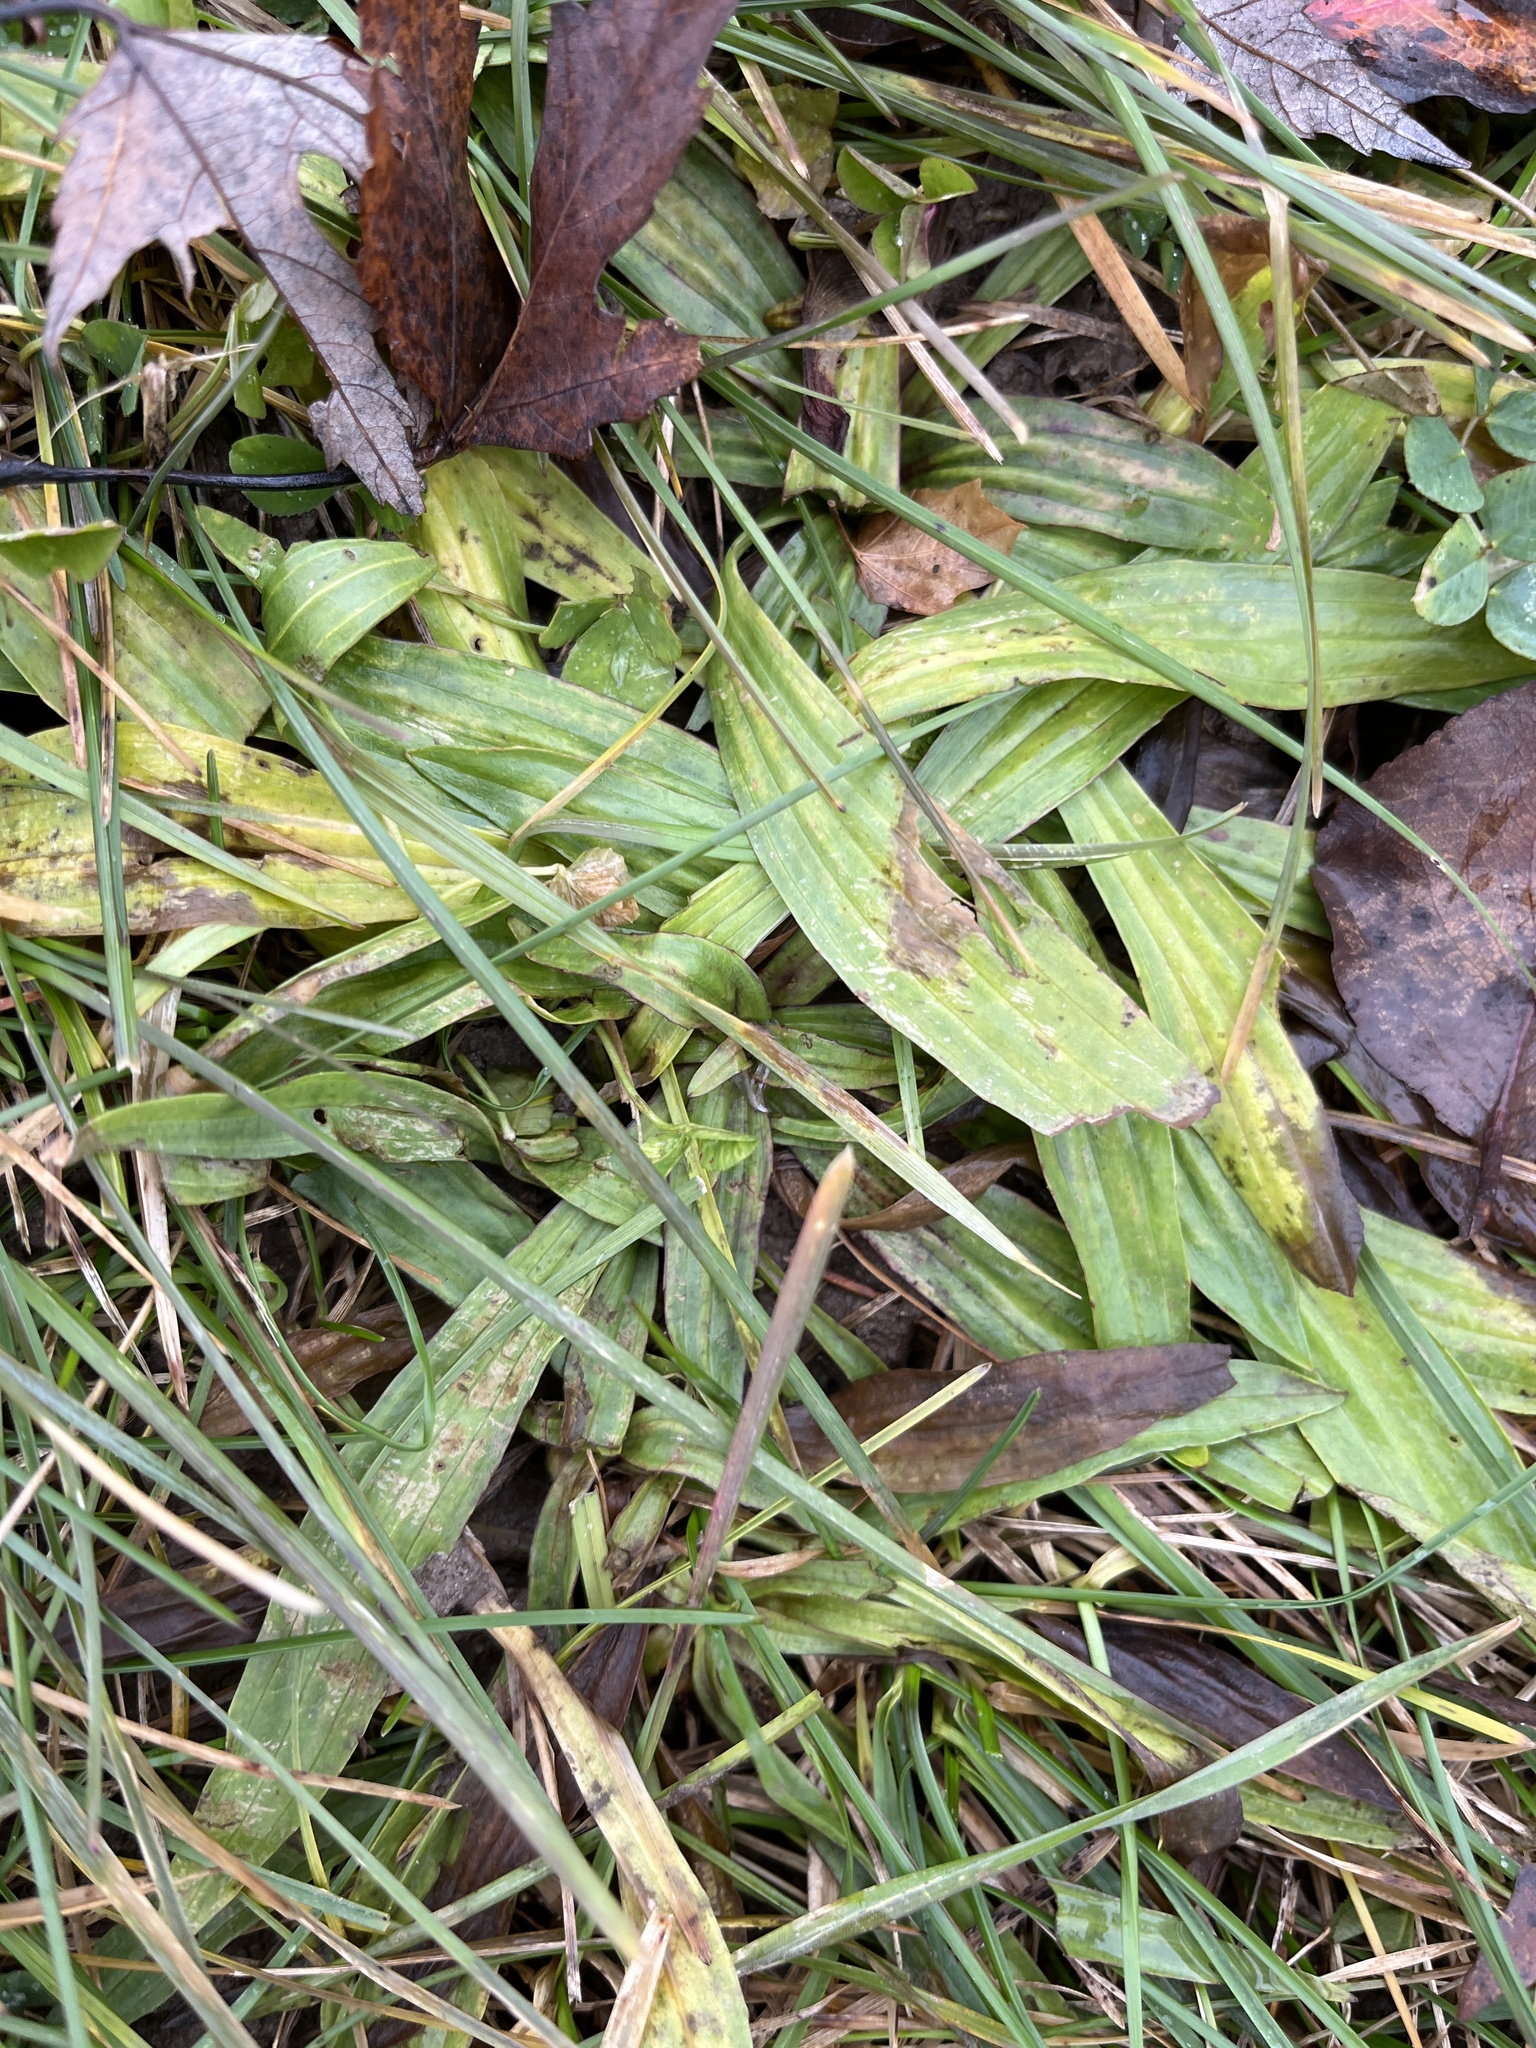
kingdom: Plantae
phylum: Tracheophyta
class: Magnoliopsida
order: Lamiales
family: Plantaginaceae
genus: Plantago
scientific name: Plantago lanceolata
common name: Ribwort plantain
